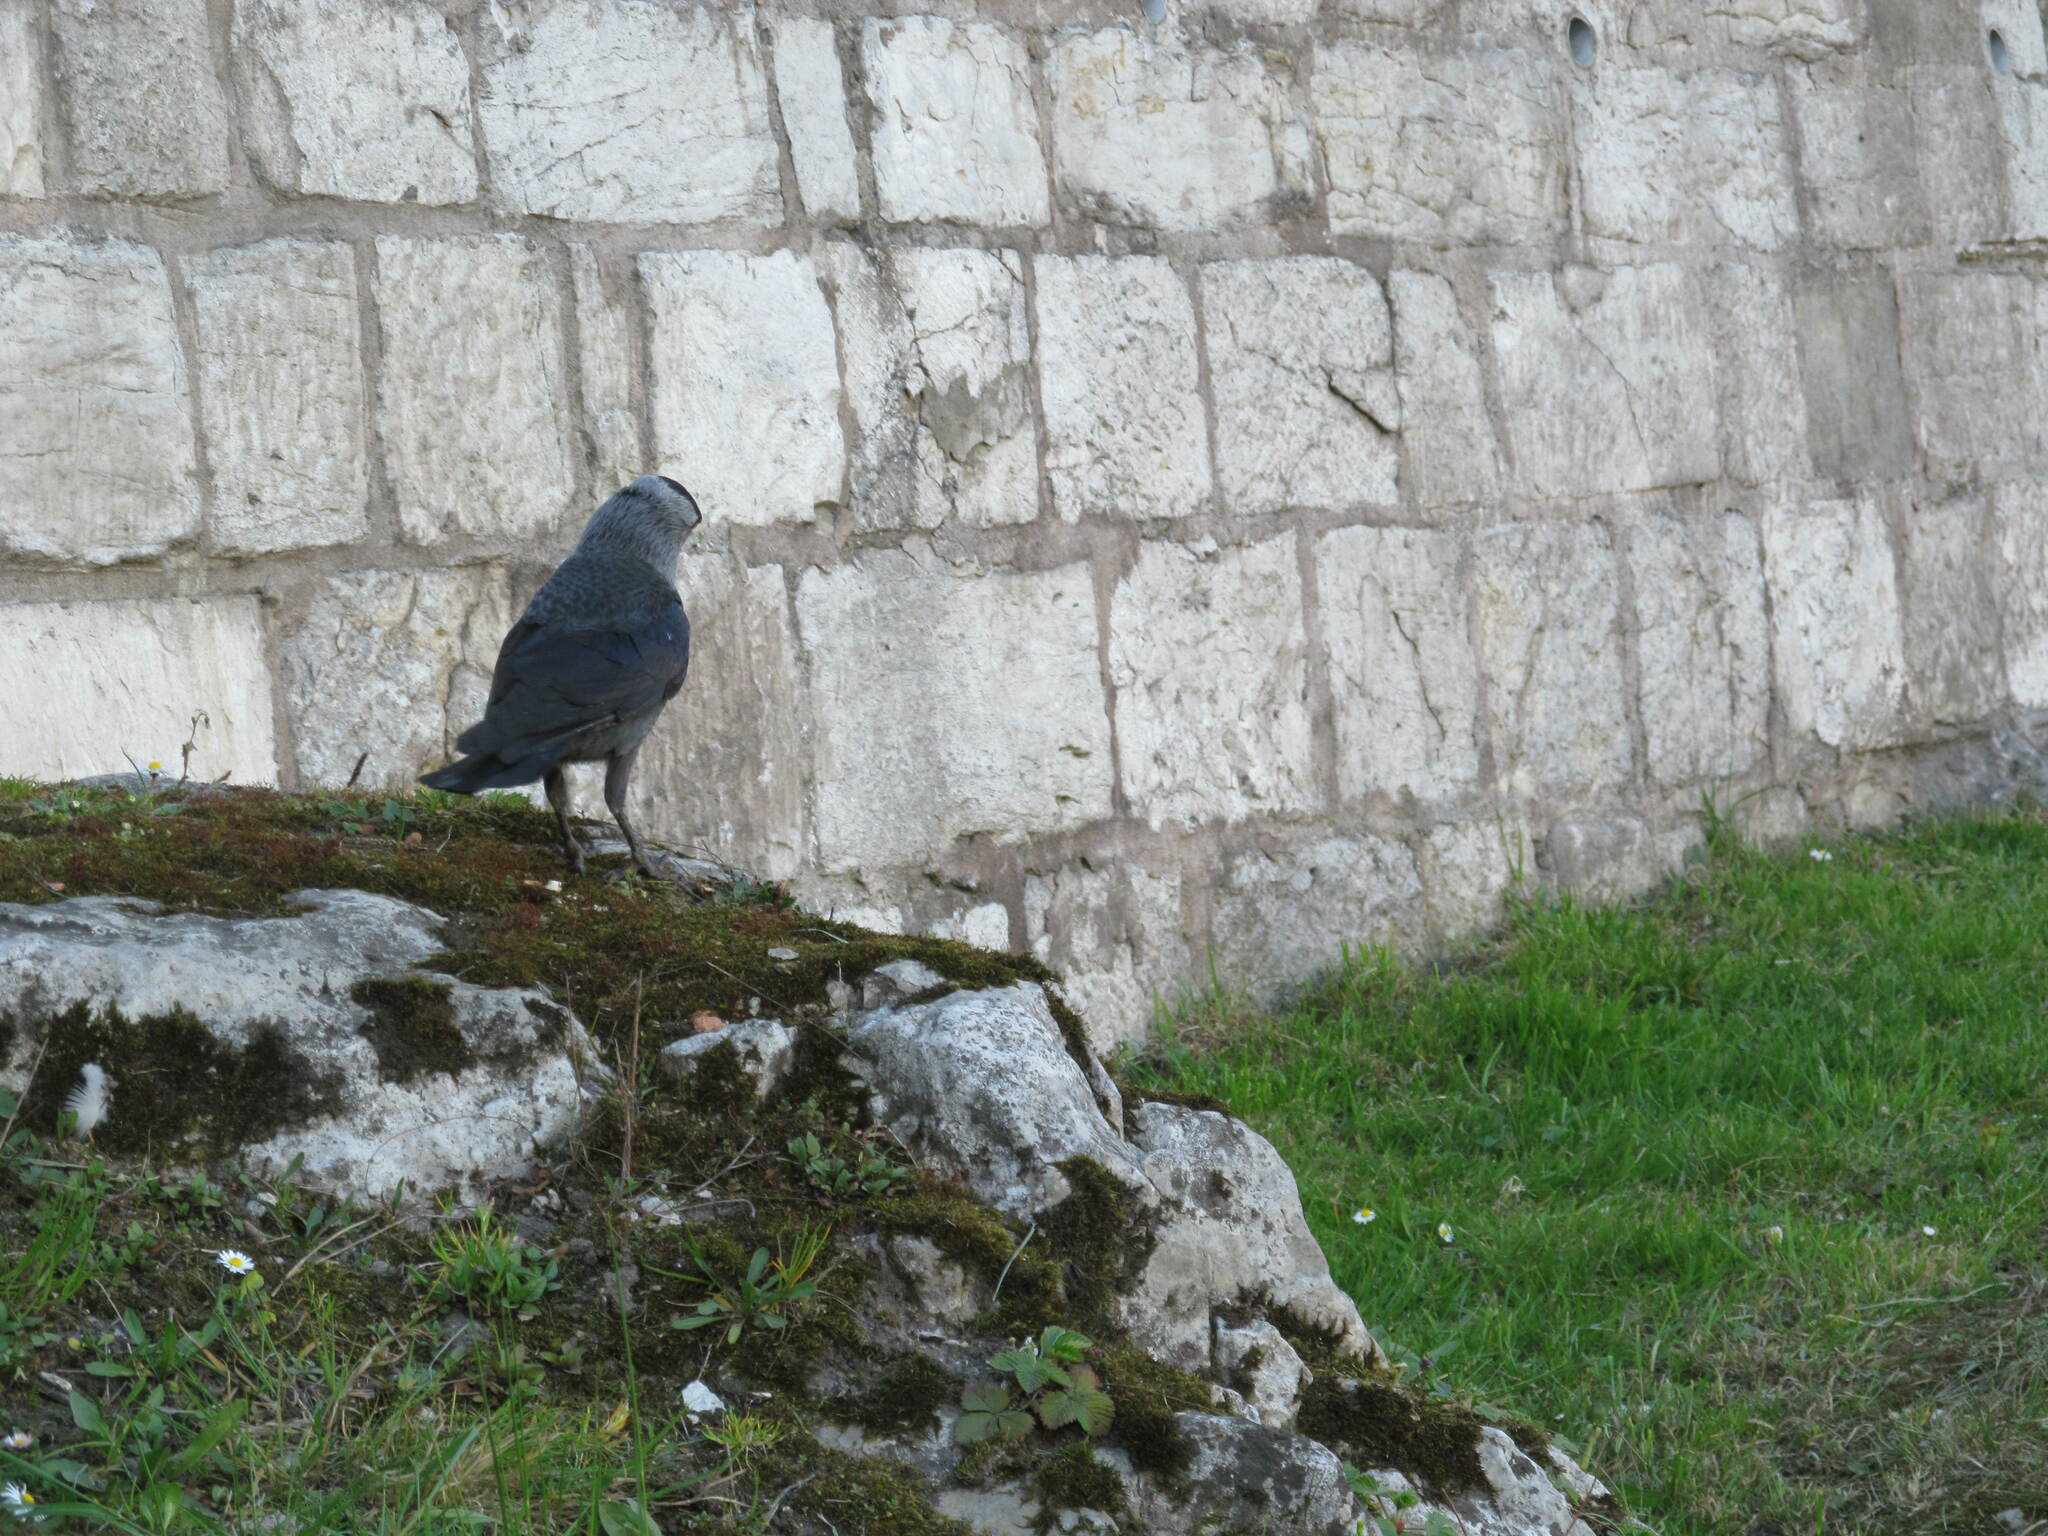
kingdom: Animalia
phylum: Chordata
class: Aves
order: Passeriformes
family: Corvidae
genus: Coloeus
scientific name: Coloeus monedula
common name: Western jackdaw
